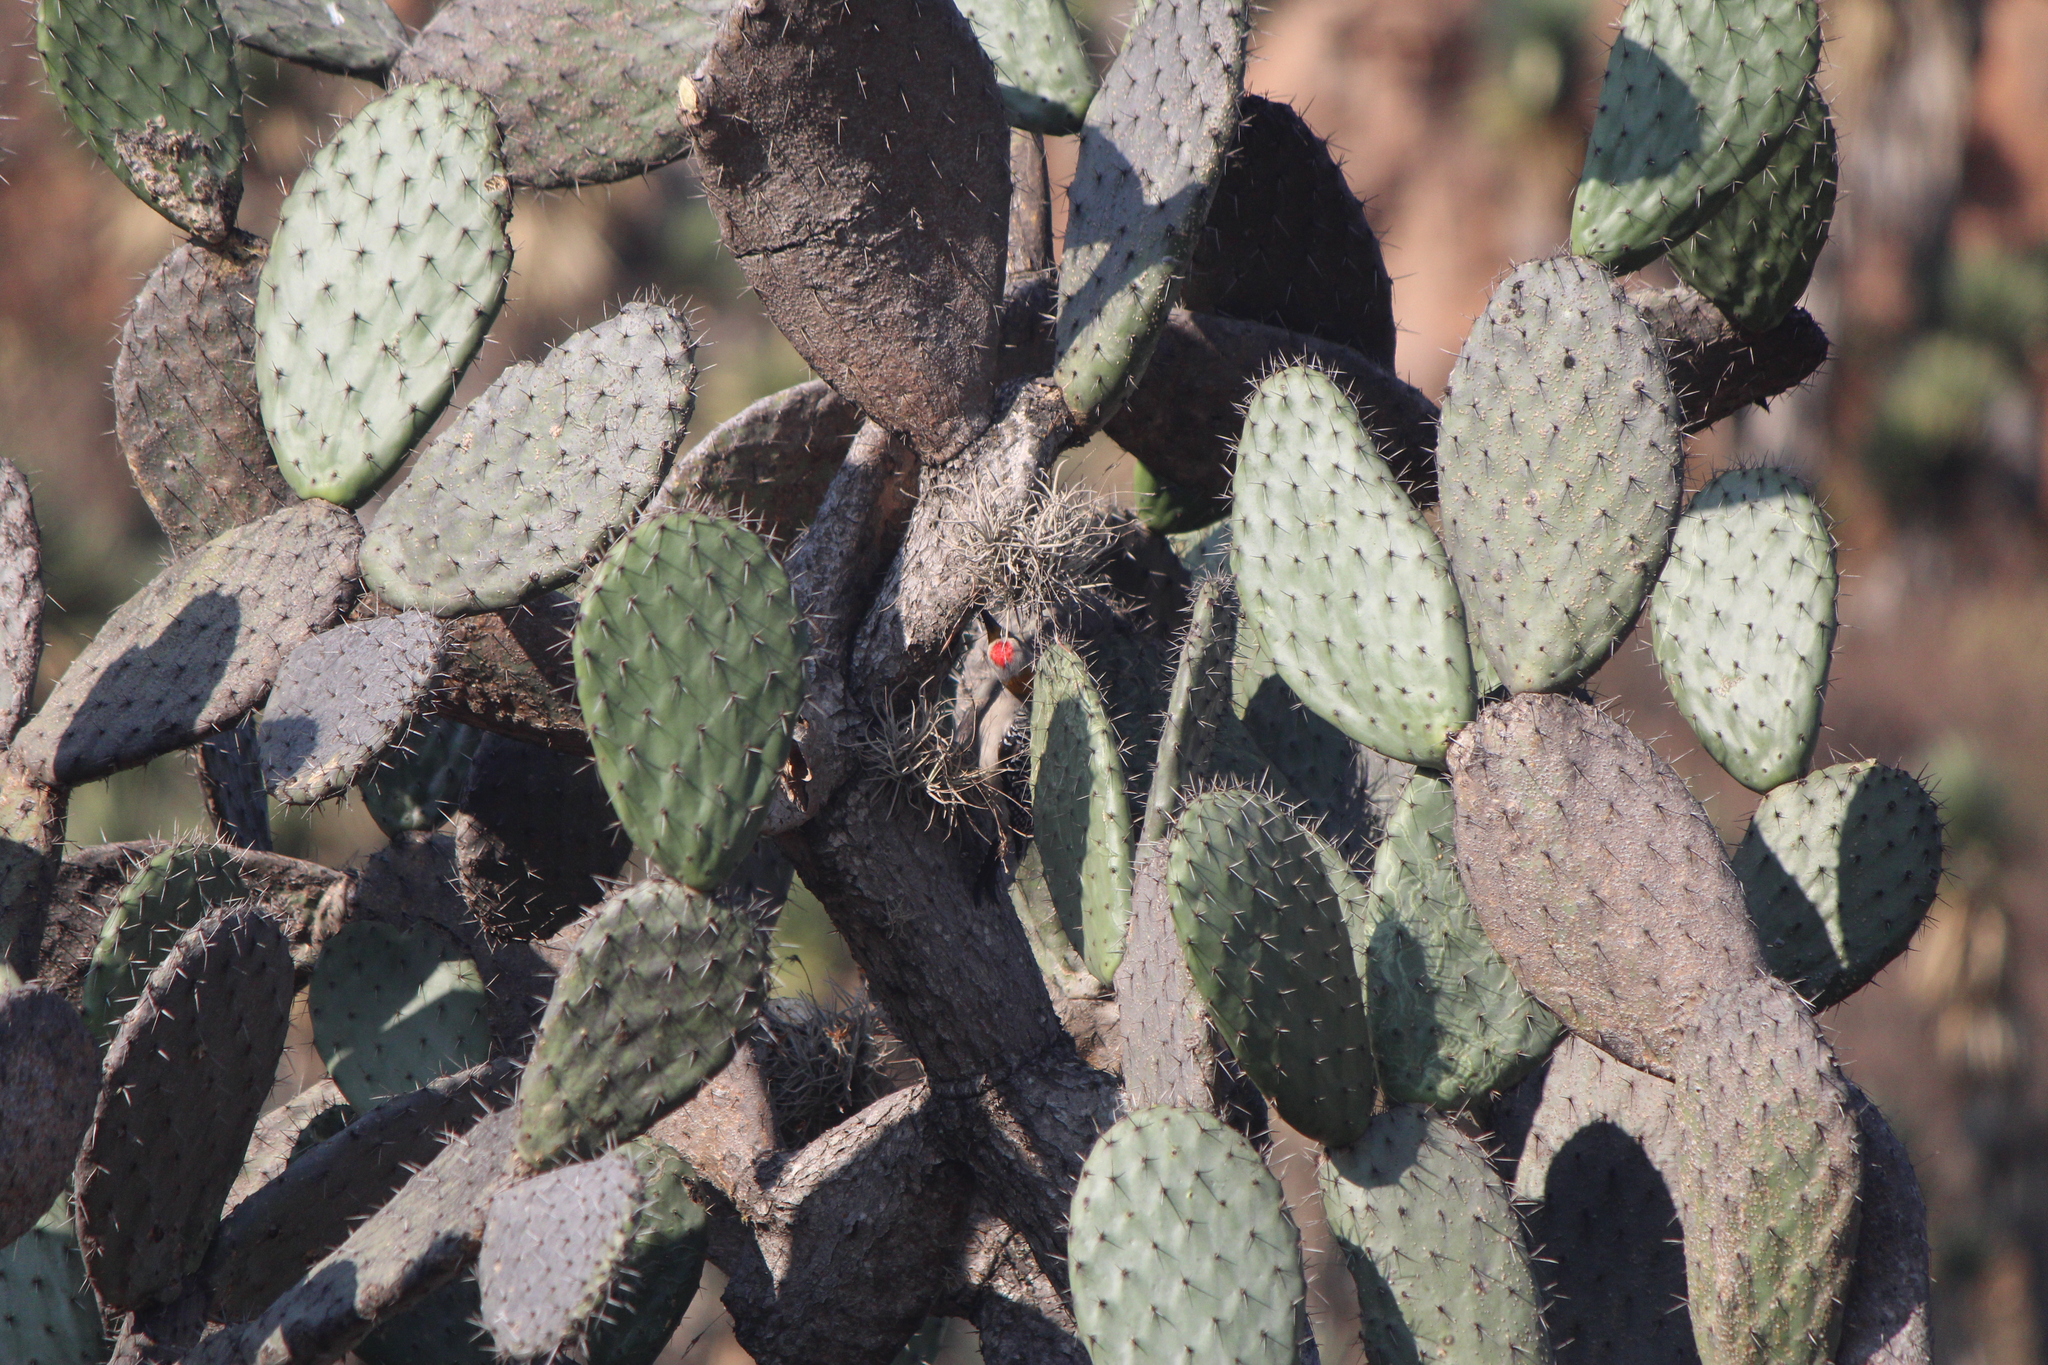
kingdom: Animalia
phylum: Chordata
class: Aves
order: Piciformes
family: Picidae
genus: Melanerpes
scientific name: Melanerpes aurifrons
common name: Golden-fronted woodpecker
